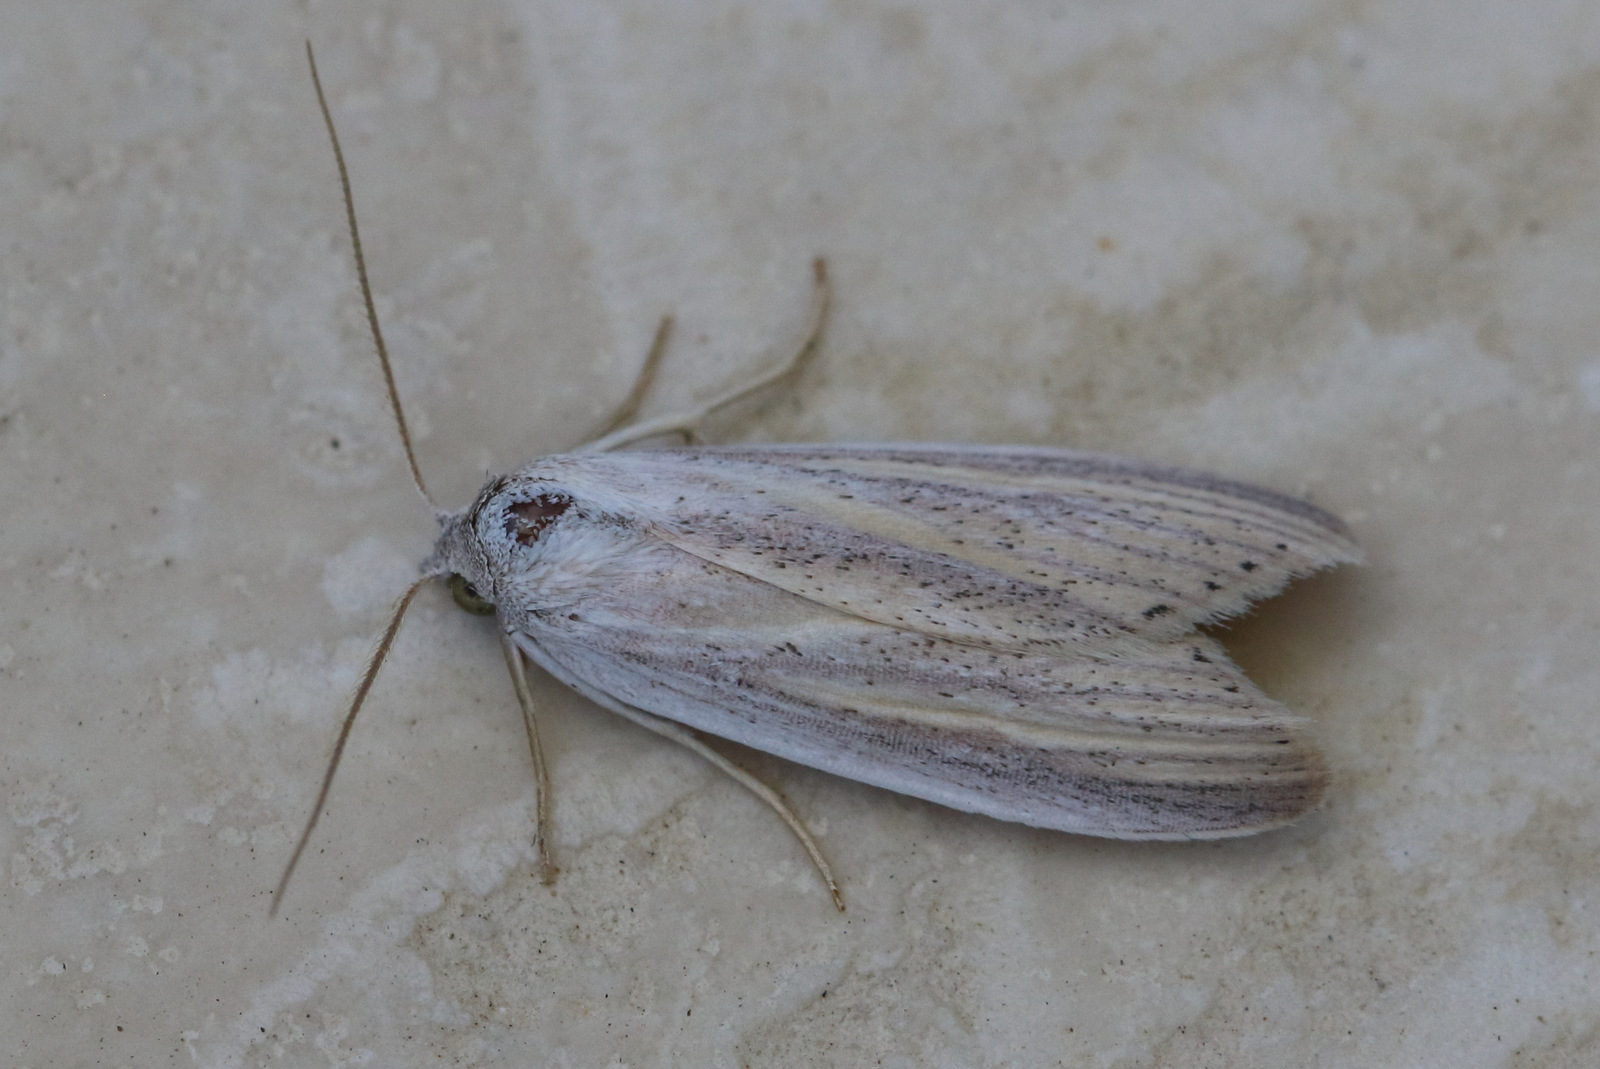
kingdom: Animalia
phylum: Arthropoda
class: Insecta
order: Lepidoptera
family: Erebidae
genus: Prionopterina
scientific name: Prionopterina grammatistis
